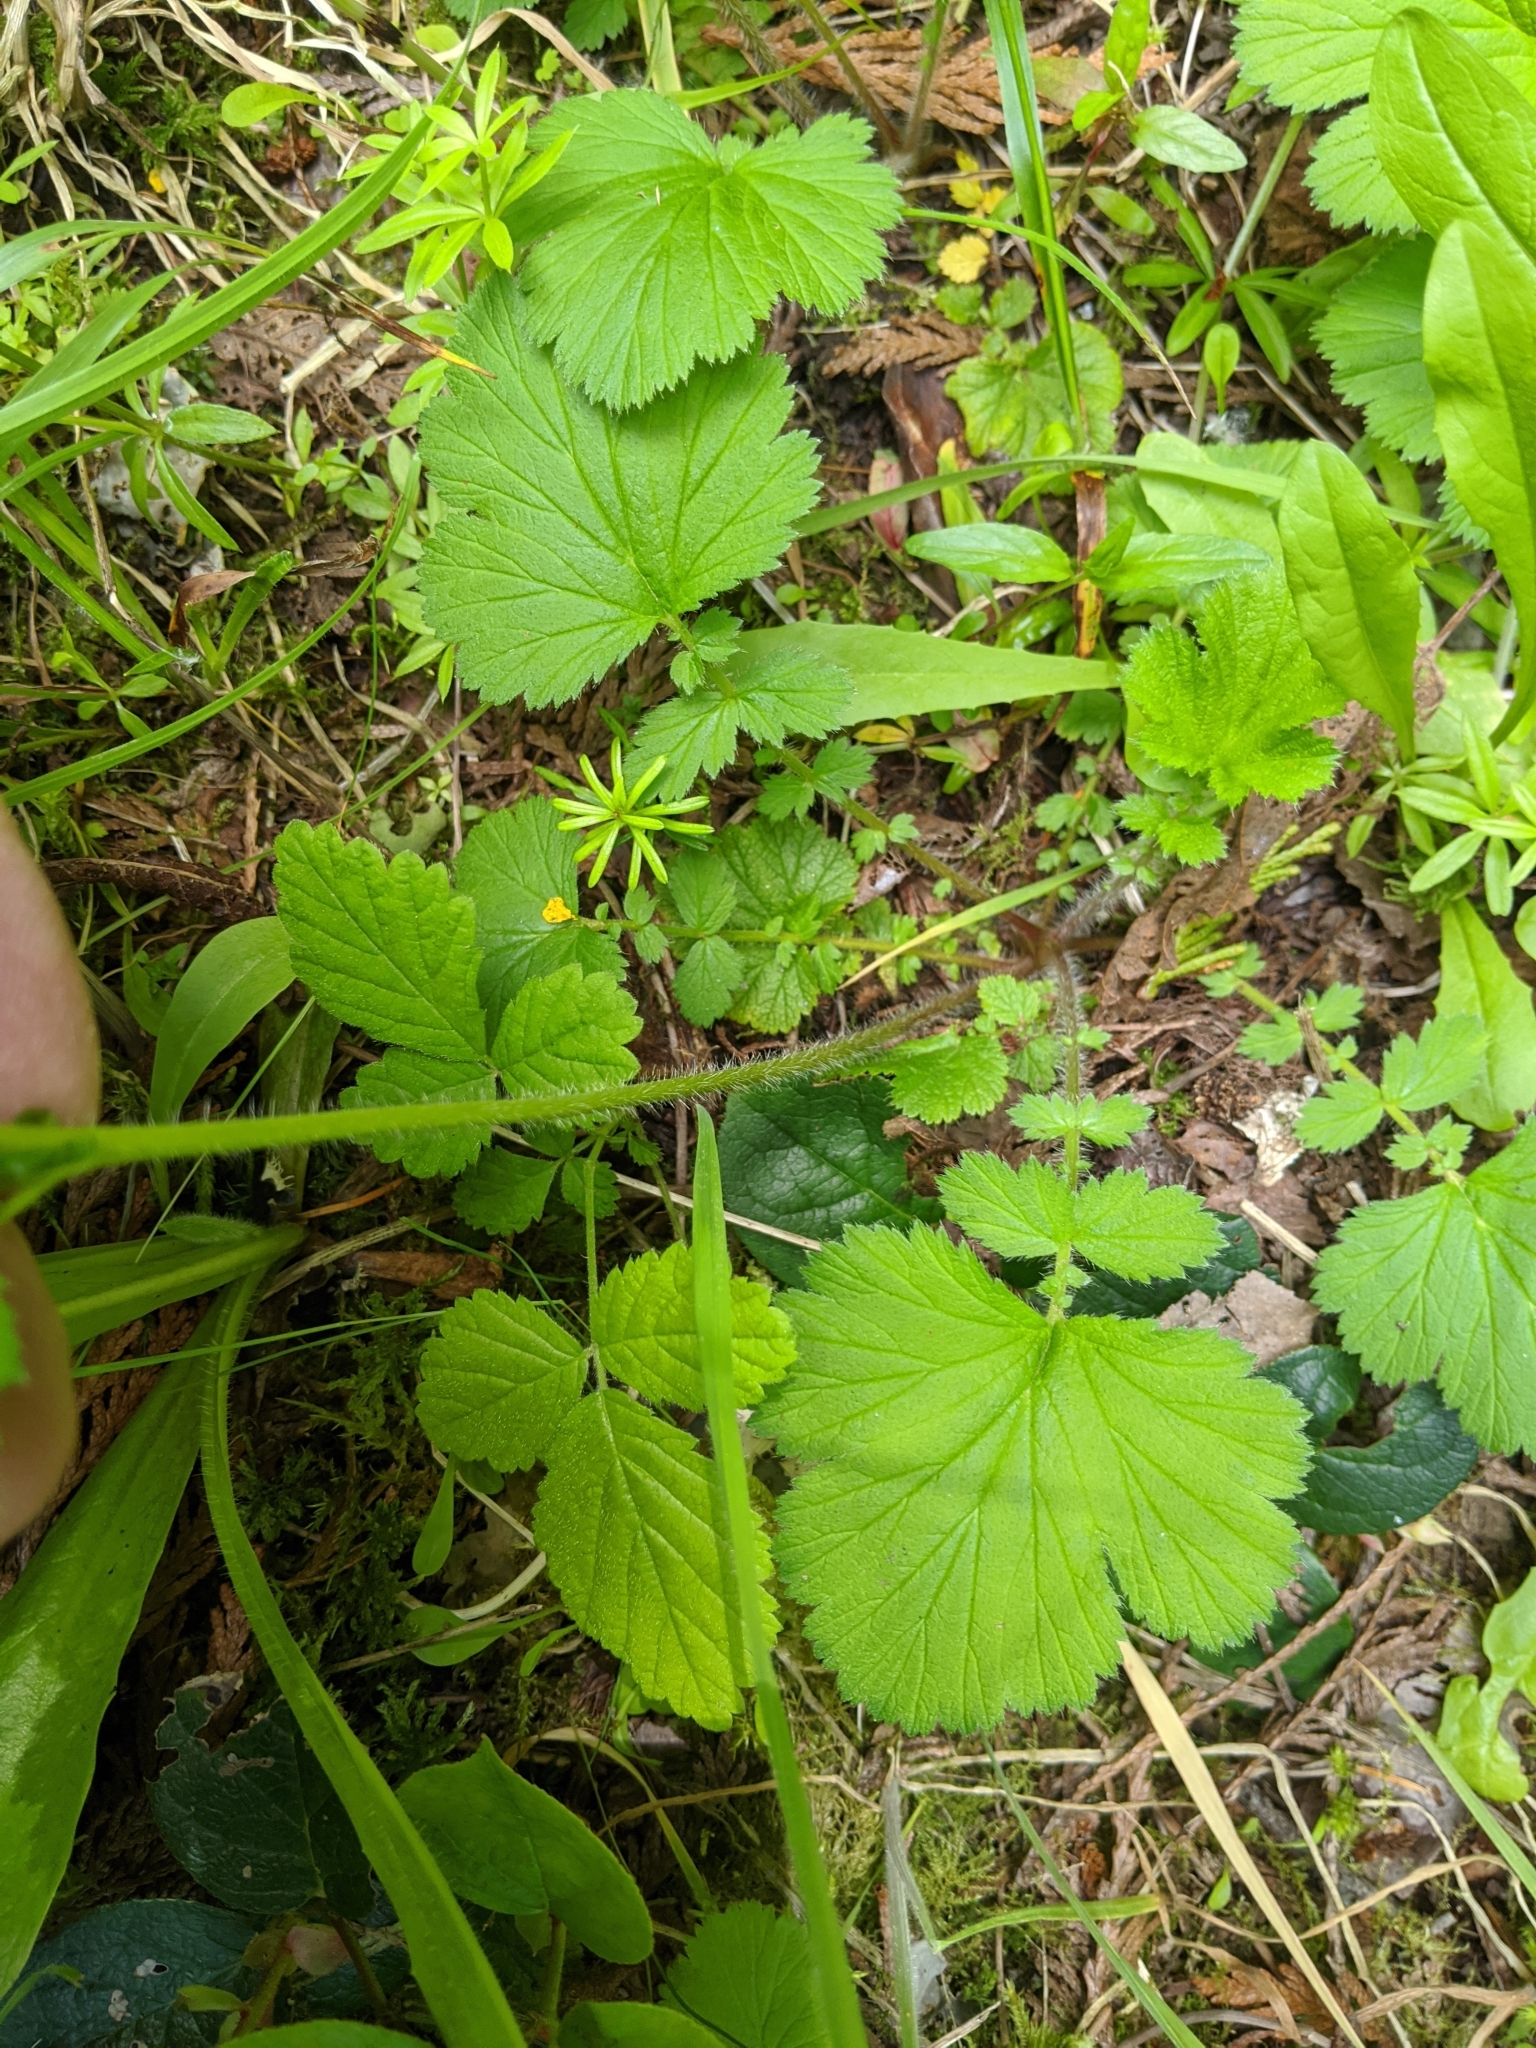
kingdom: Plantae
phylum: Tracheophyta
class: Magnoliopsida
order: Rosales
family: Rosaceae
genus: Geum
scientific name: Geum macrophyllum
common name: Large-leaved avens
